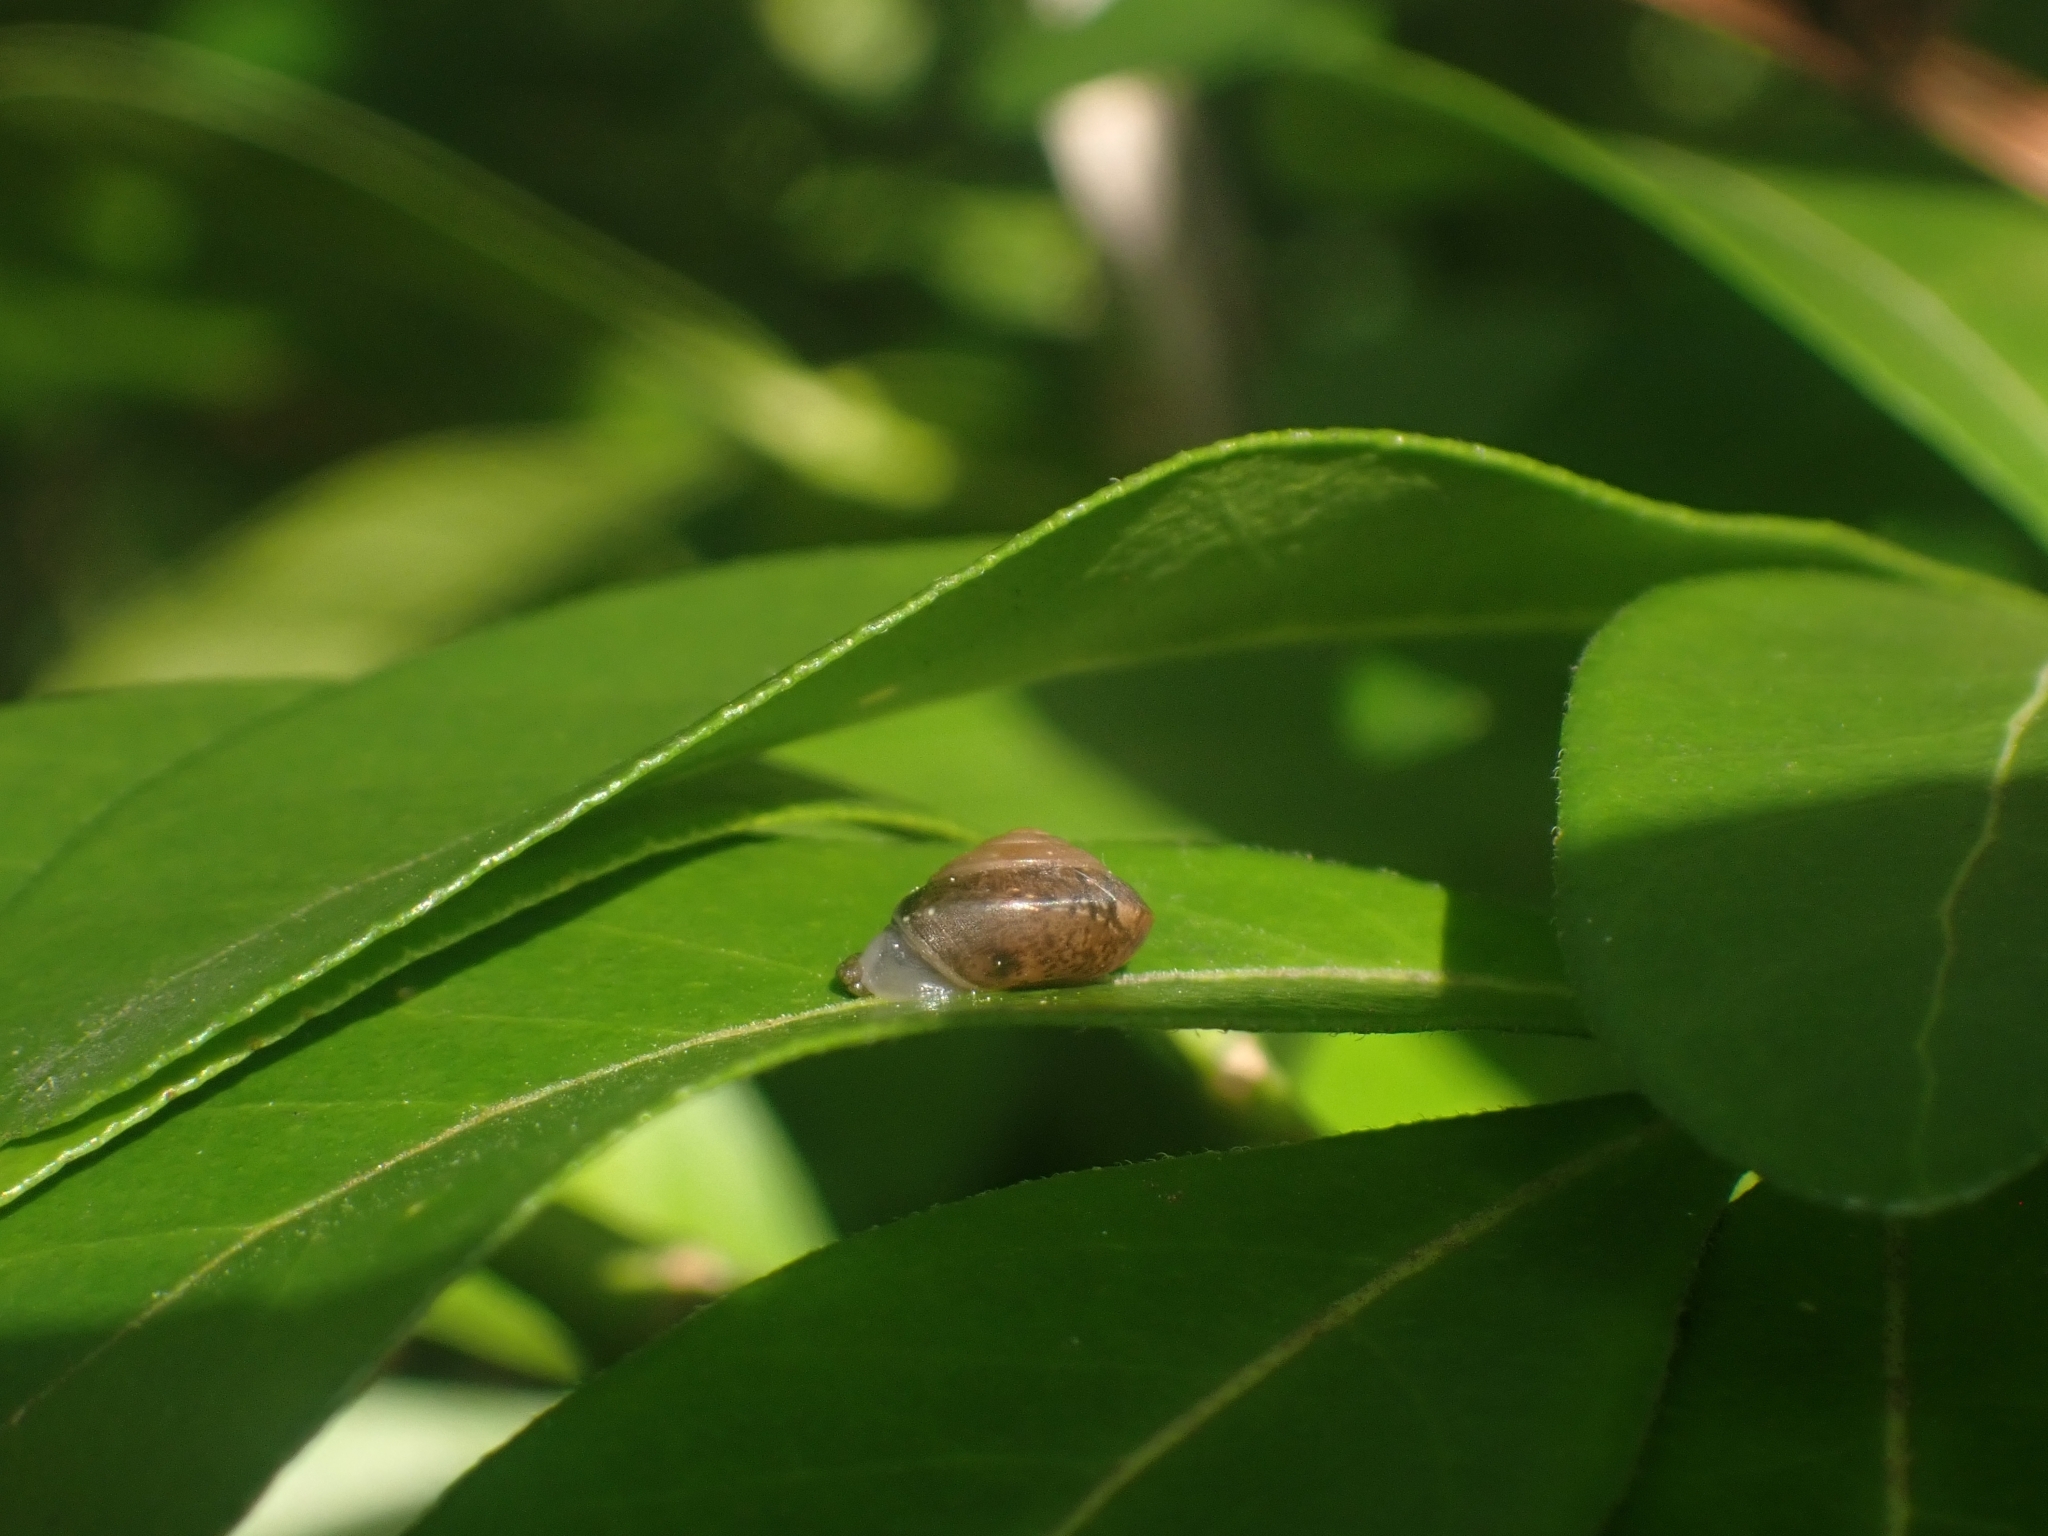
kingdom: Animalia
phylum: Mollusca
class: Gastropoda
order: Stylommatophora
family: Hygromiidae
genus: Hygromia
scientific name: Hygromia cinctella
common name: Girdled snail
